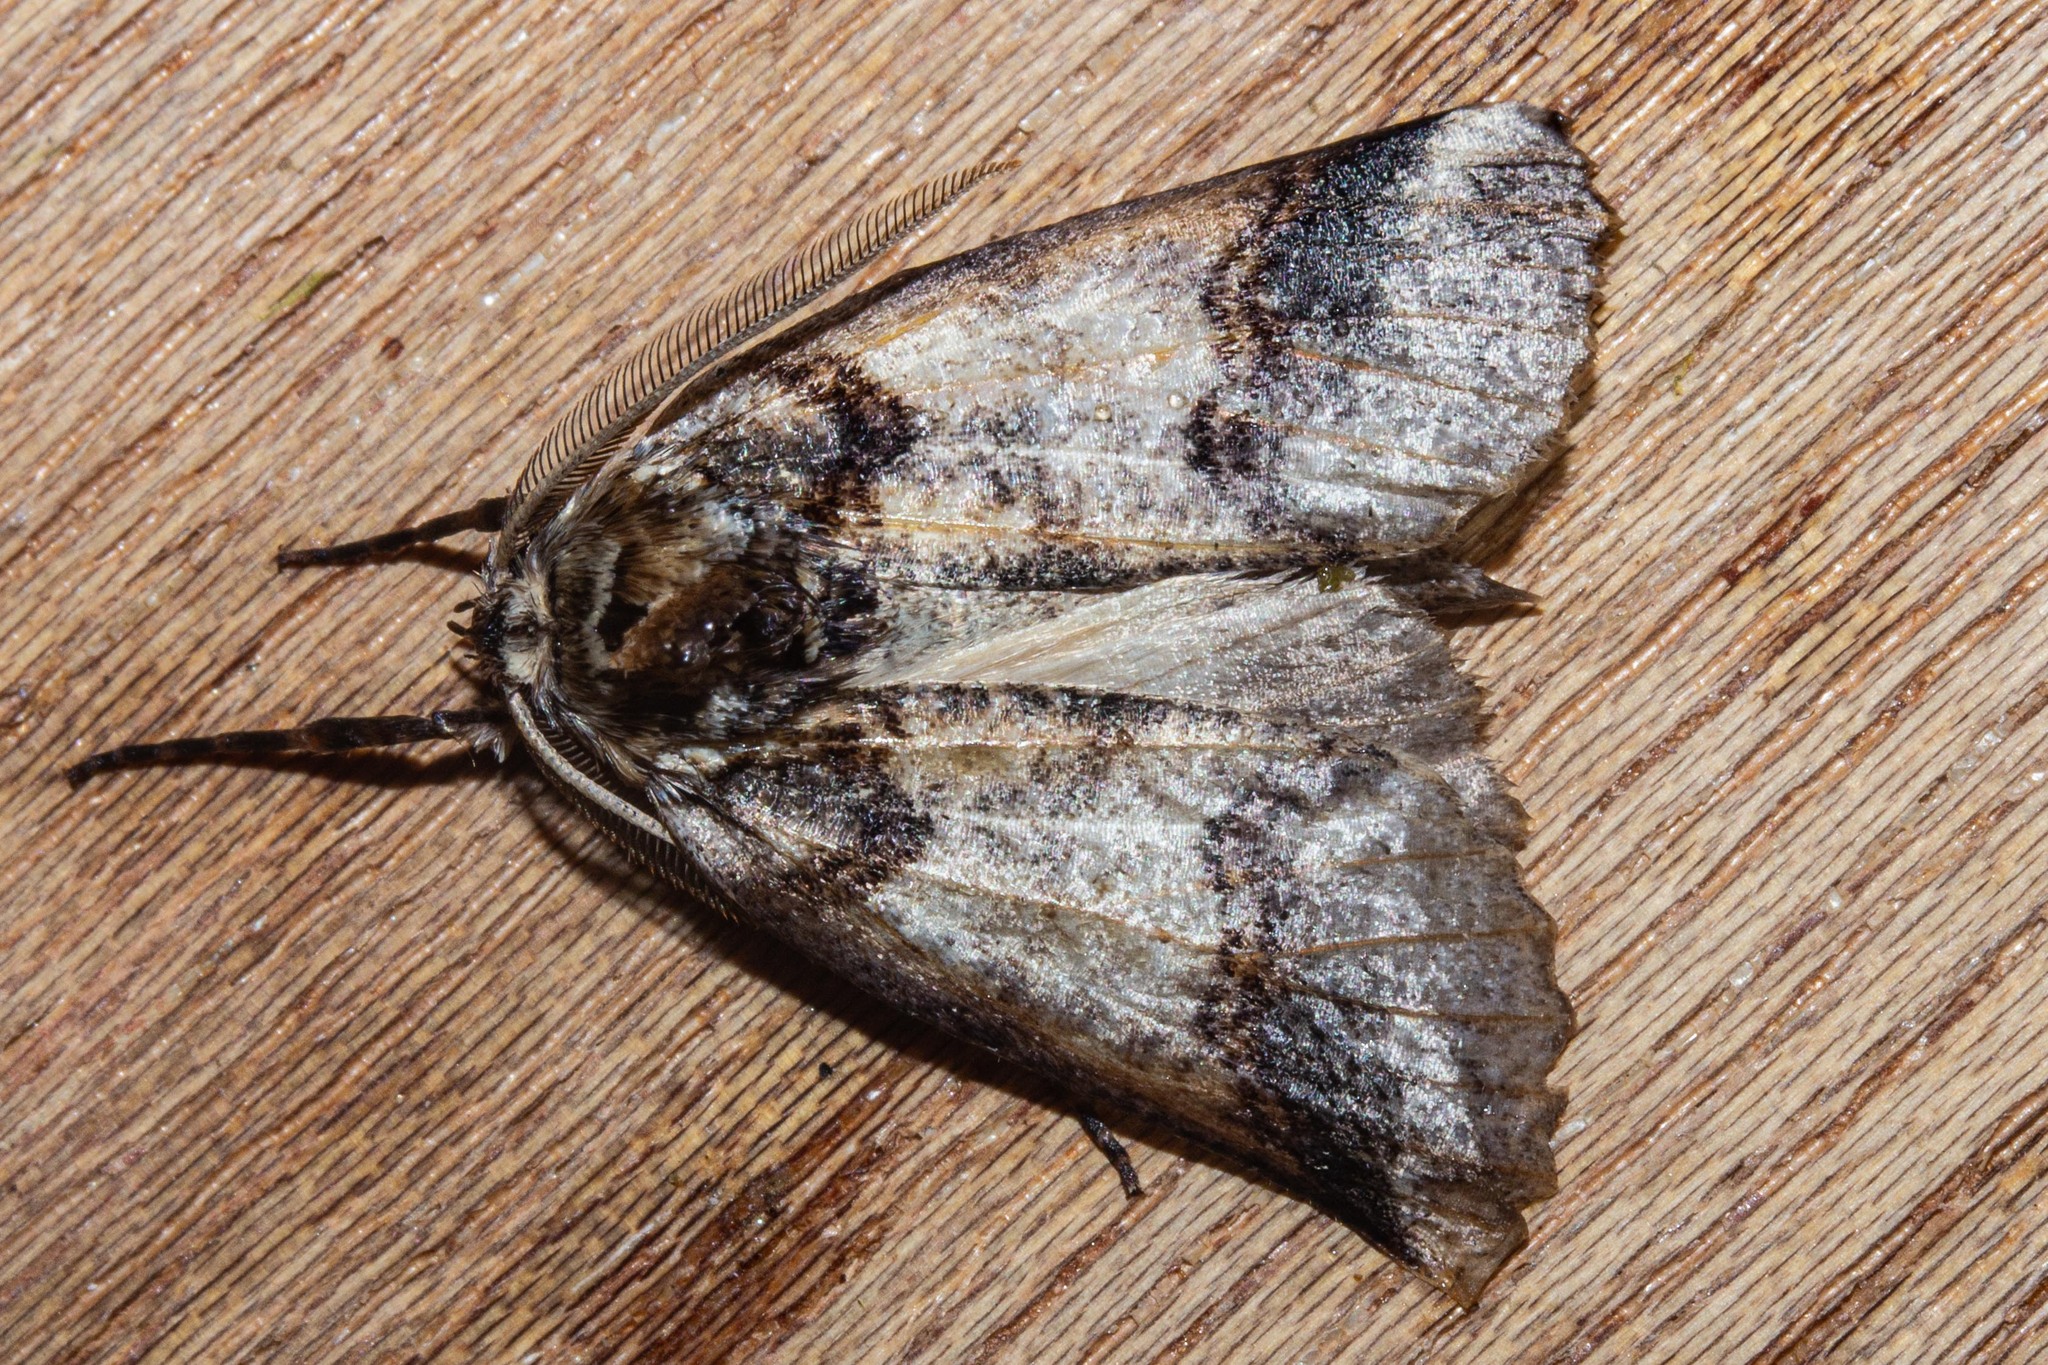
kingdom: Animalia
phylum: Arthropoda
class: Insecta
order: Lepidoptera
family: Geometridae
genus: Declana
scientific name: Declana
